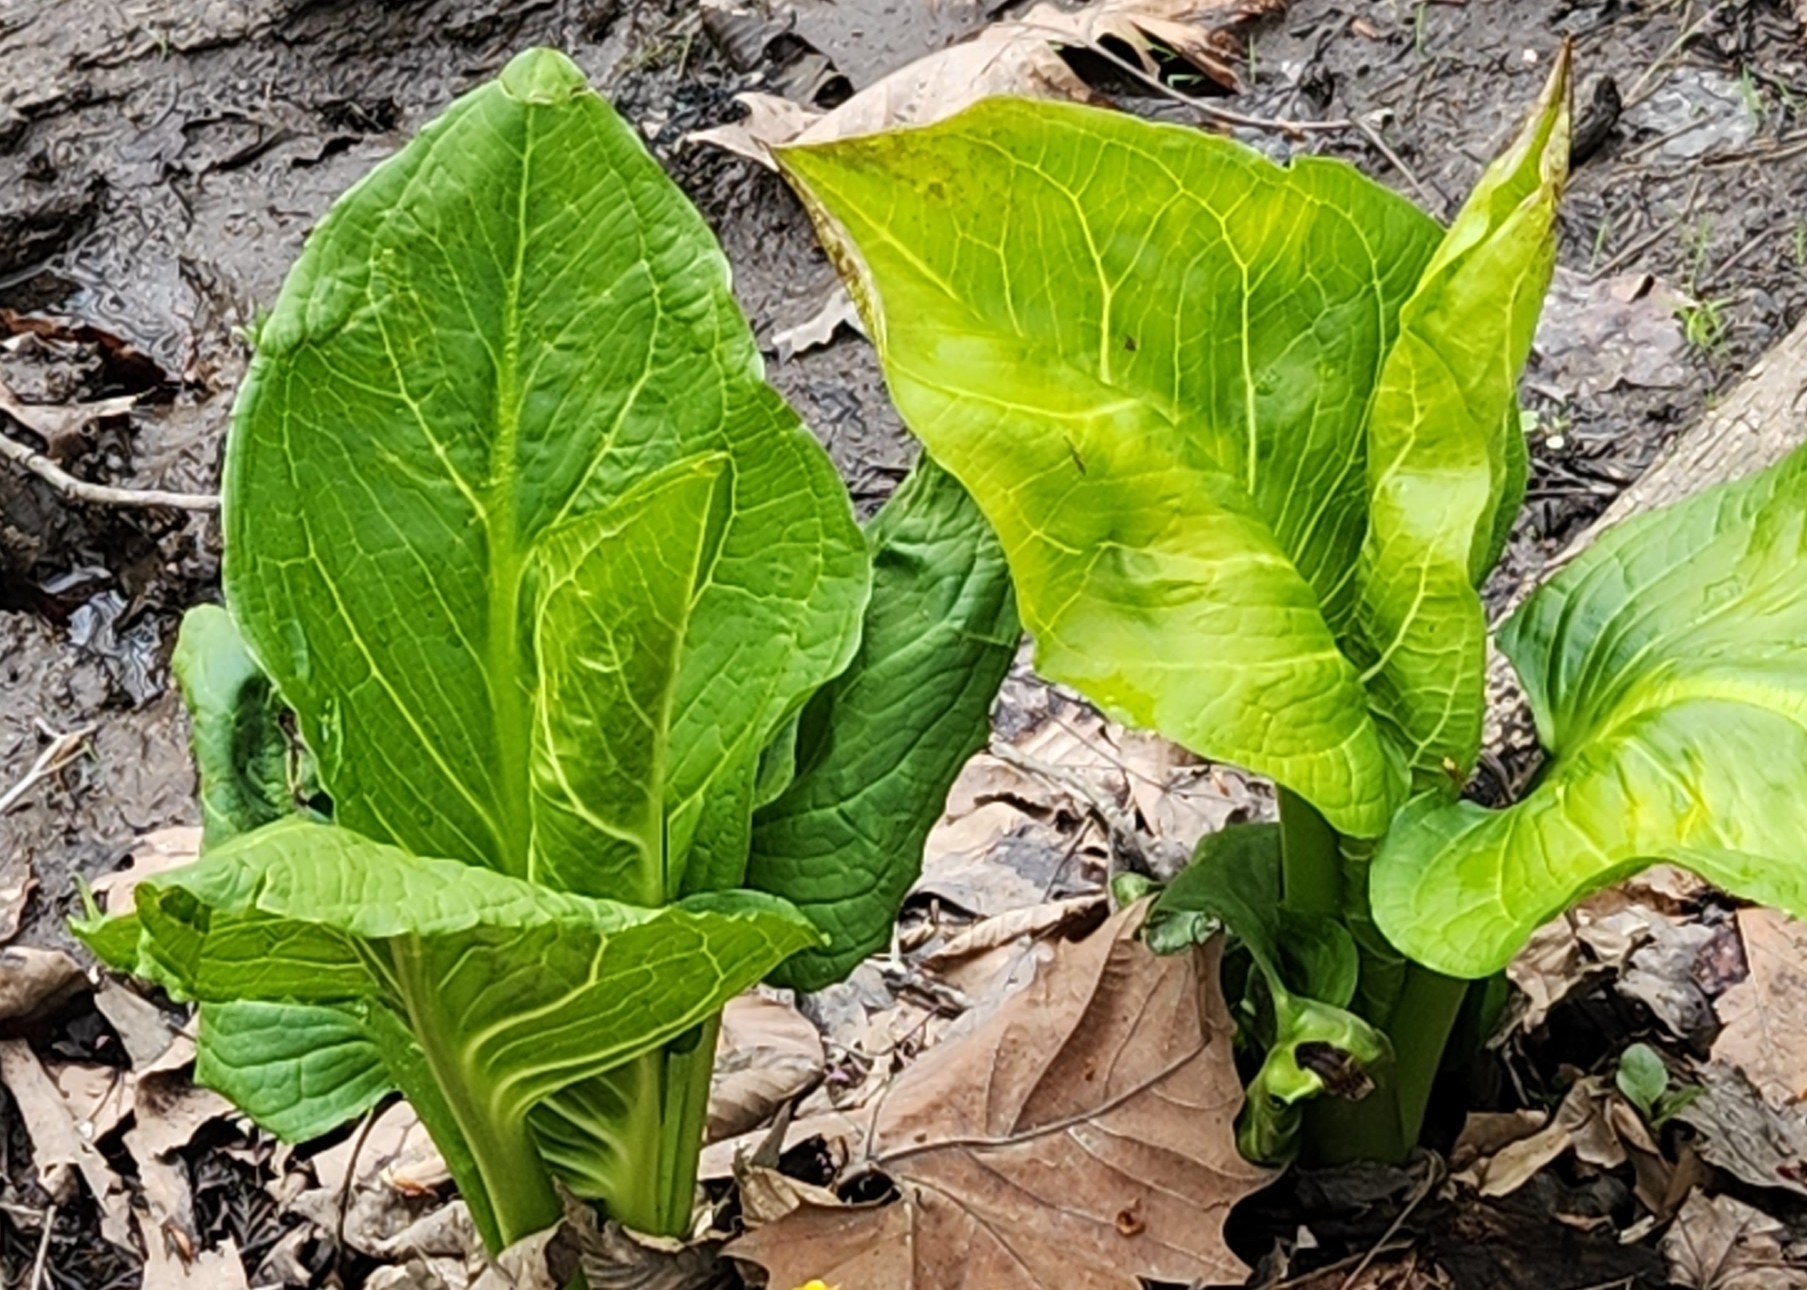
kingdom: Plantae
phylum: Tracheophyta
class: Liliopsida
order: Alismatales
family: Araceae
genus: Symplocarpus
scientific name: Symplocarpus foetidus
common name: Eastern skunk cabbage
